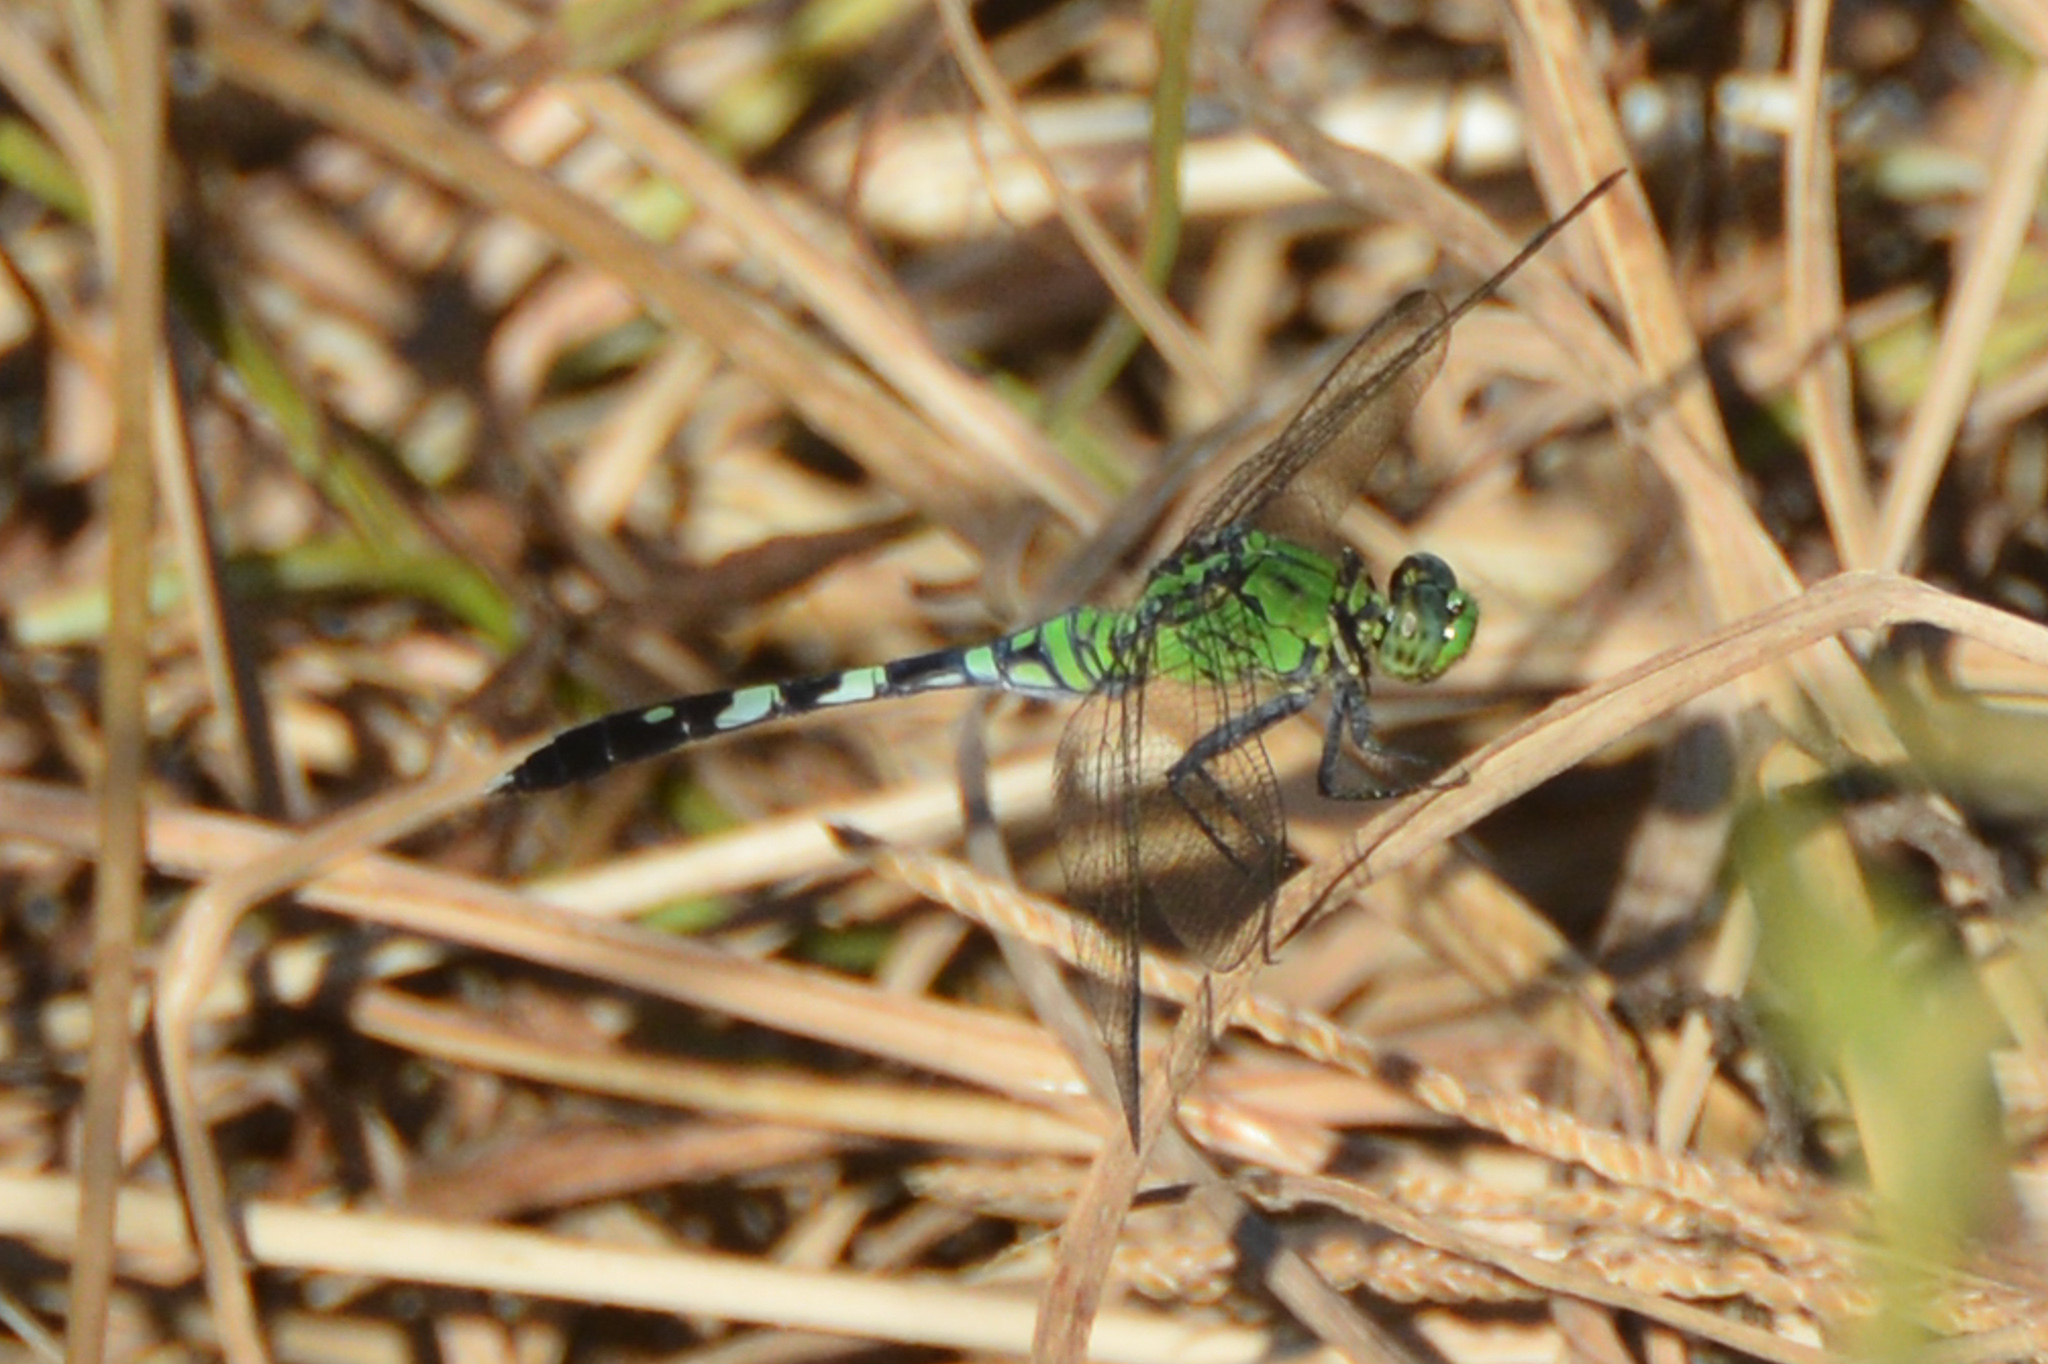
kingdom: Animalia
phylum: Arthropoda
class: Insecta
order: Odonata
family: Libellulidae
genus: Erythemis
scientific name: Erythemis simplicicollis
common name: Eastern pondhawk
